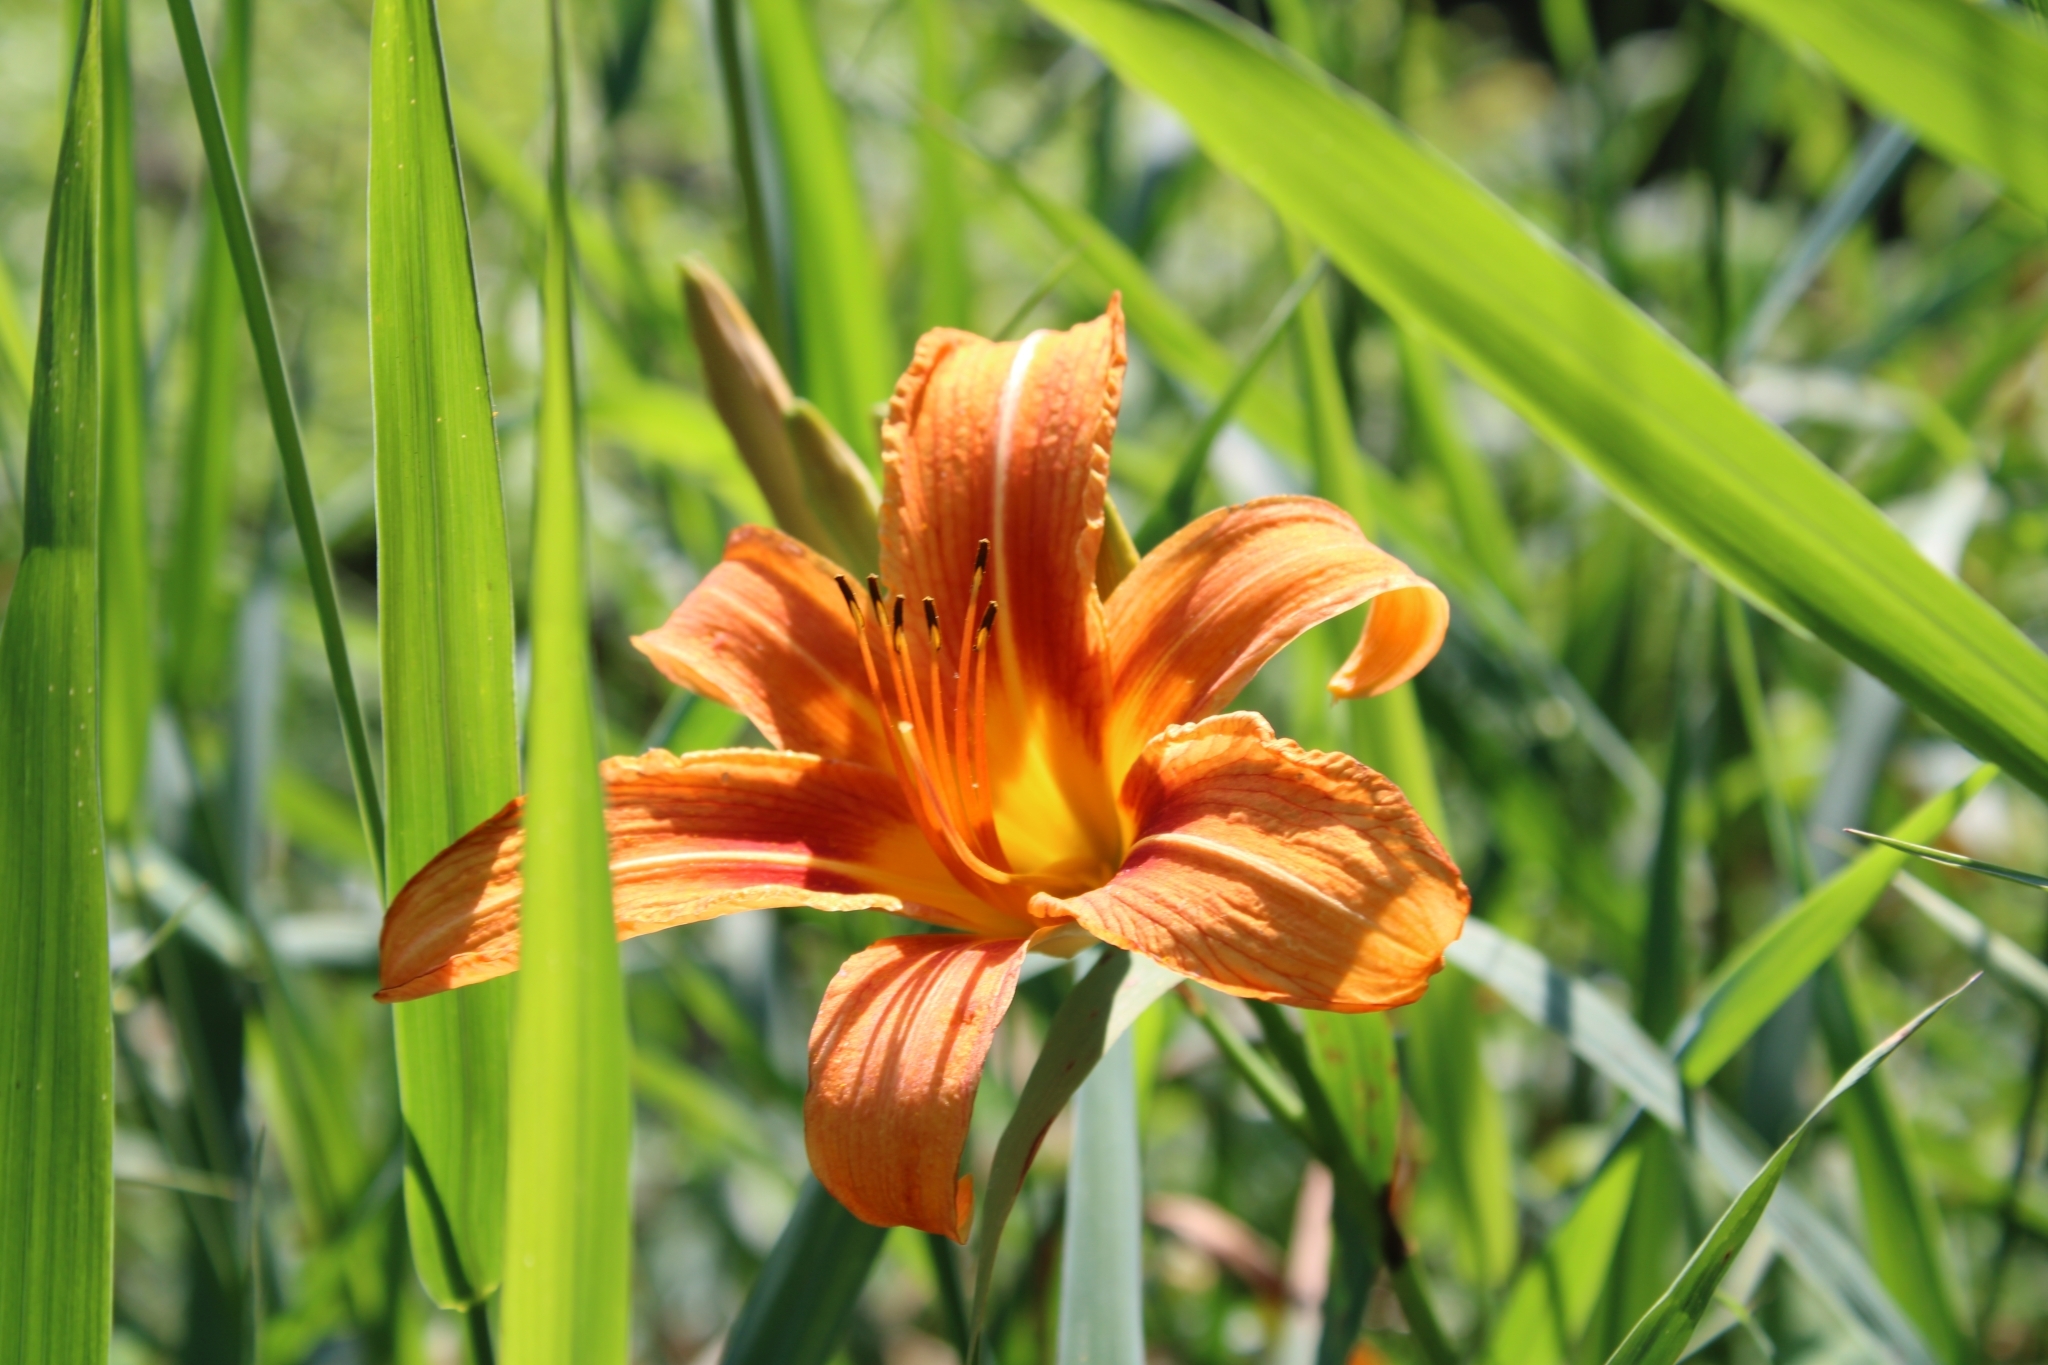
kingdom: Plantae
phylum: Tracheophyta
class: Liliopsida
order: Asparagales
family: Asphodelaceae
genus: Hemerocallis
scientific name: Hemerocallis fulva
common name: Orange day-lily
